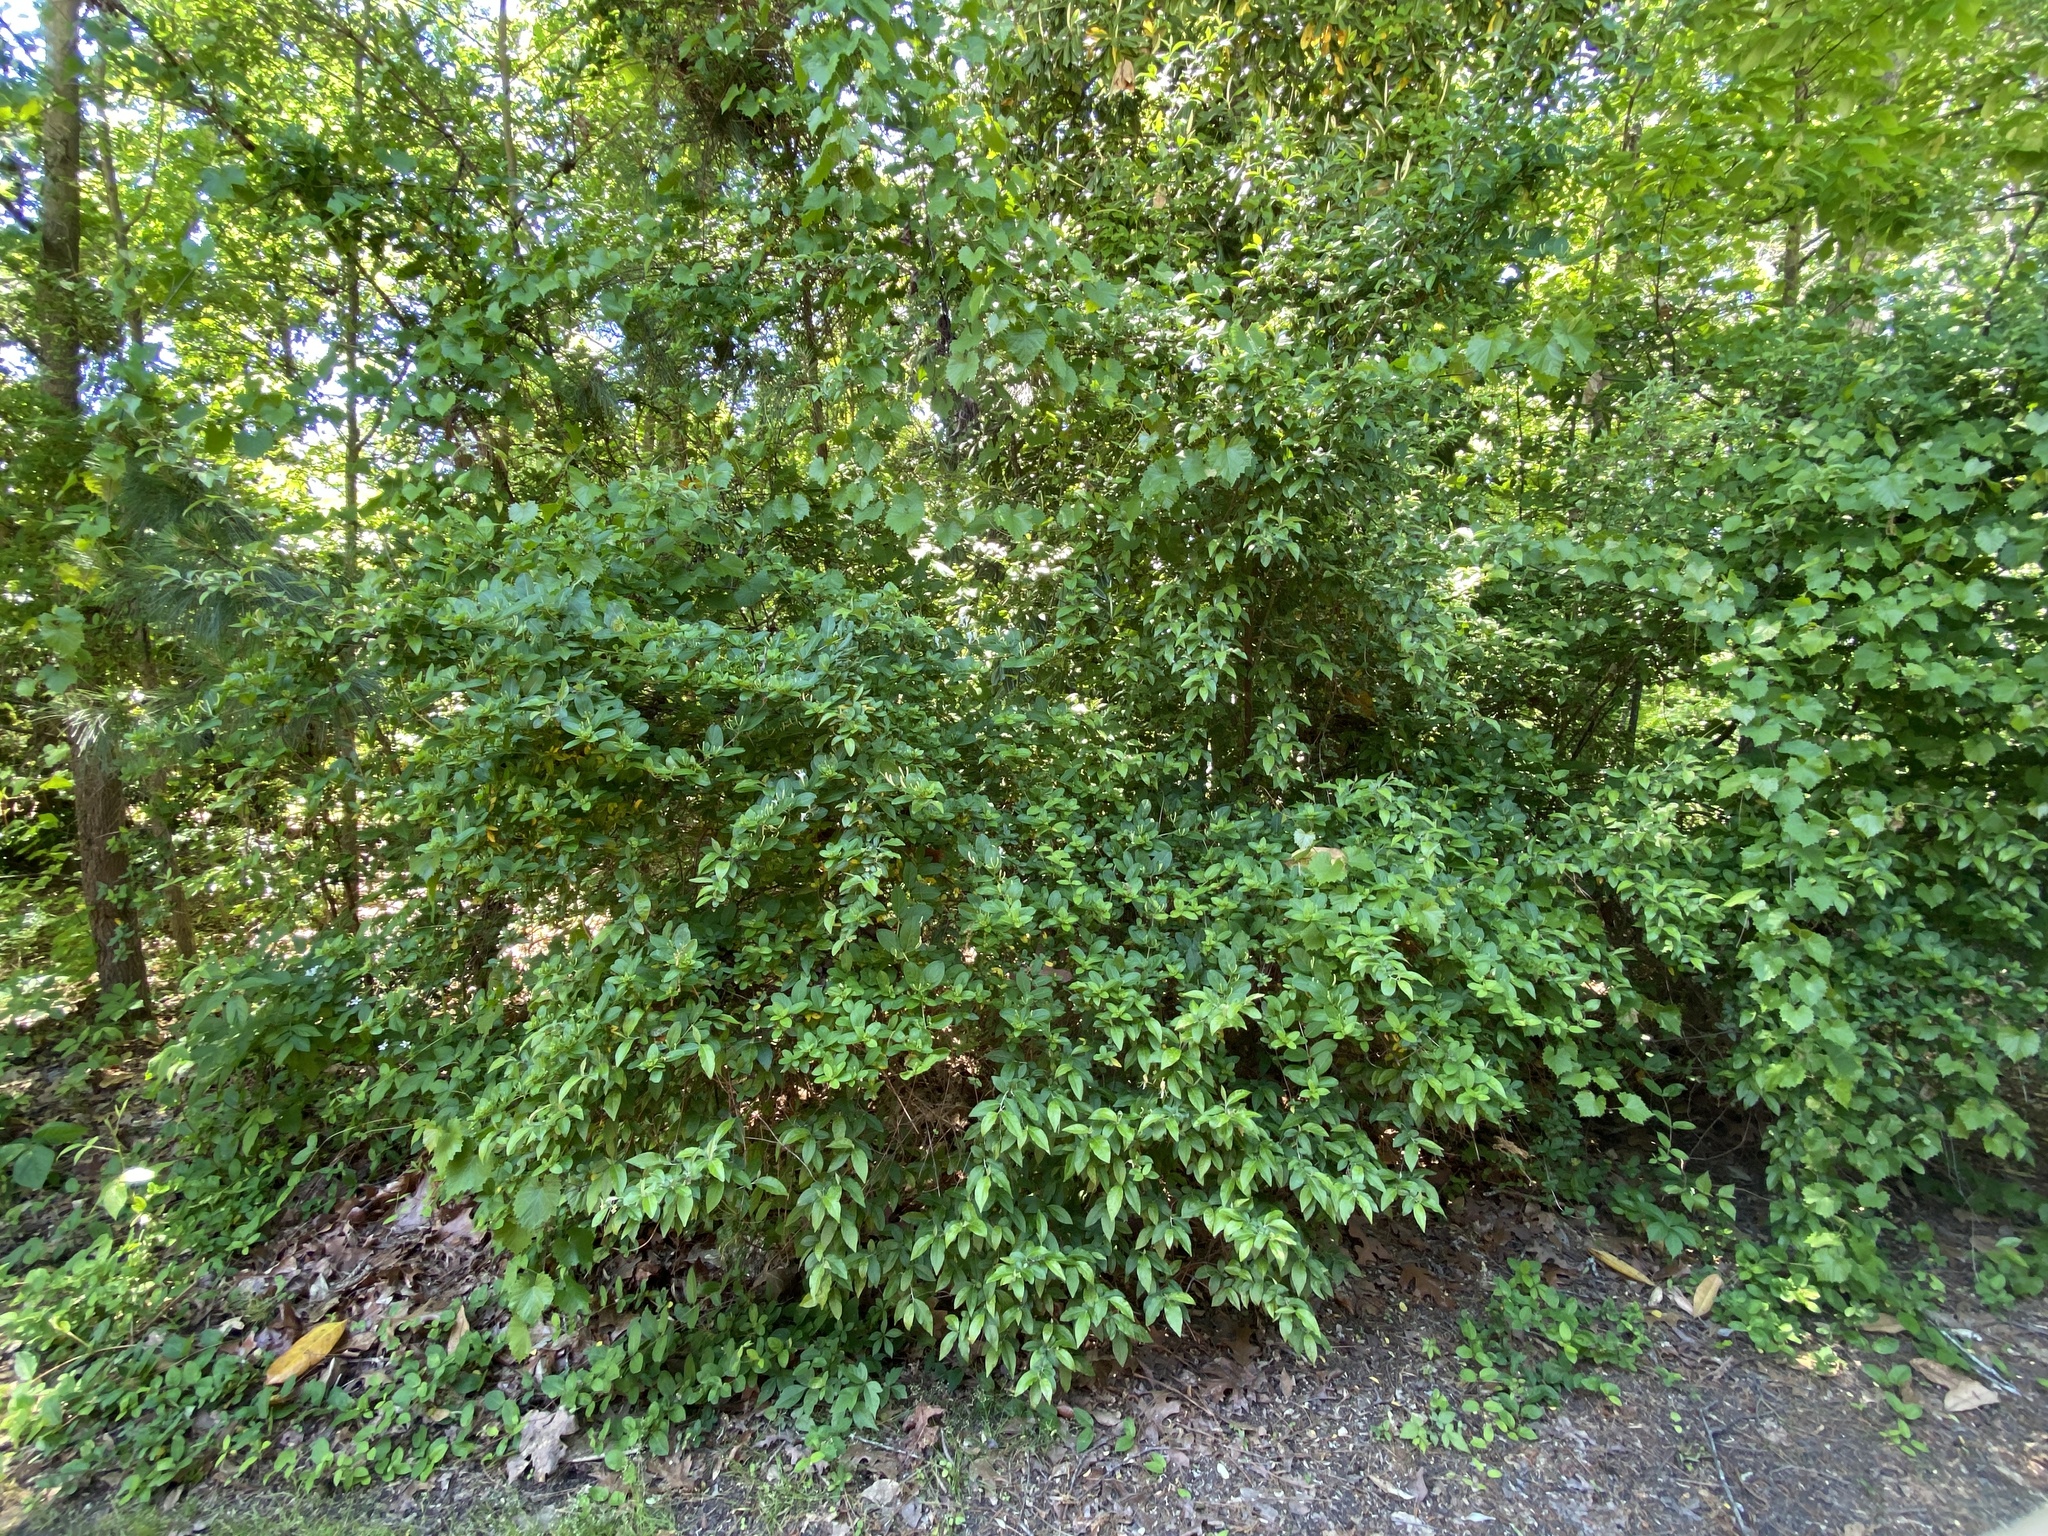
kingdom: Plantae
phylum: Tracheophyta
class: Magnoliopsida
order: Rosales
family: Elaeagnaceae
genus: Elaeagnus
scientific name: Elaeagnus umbellata
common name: Autumn olive
